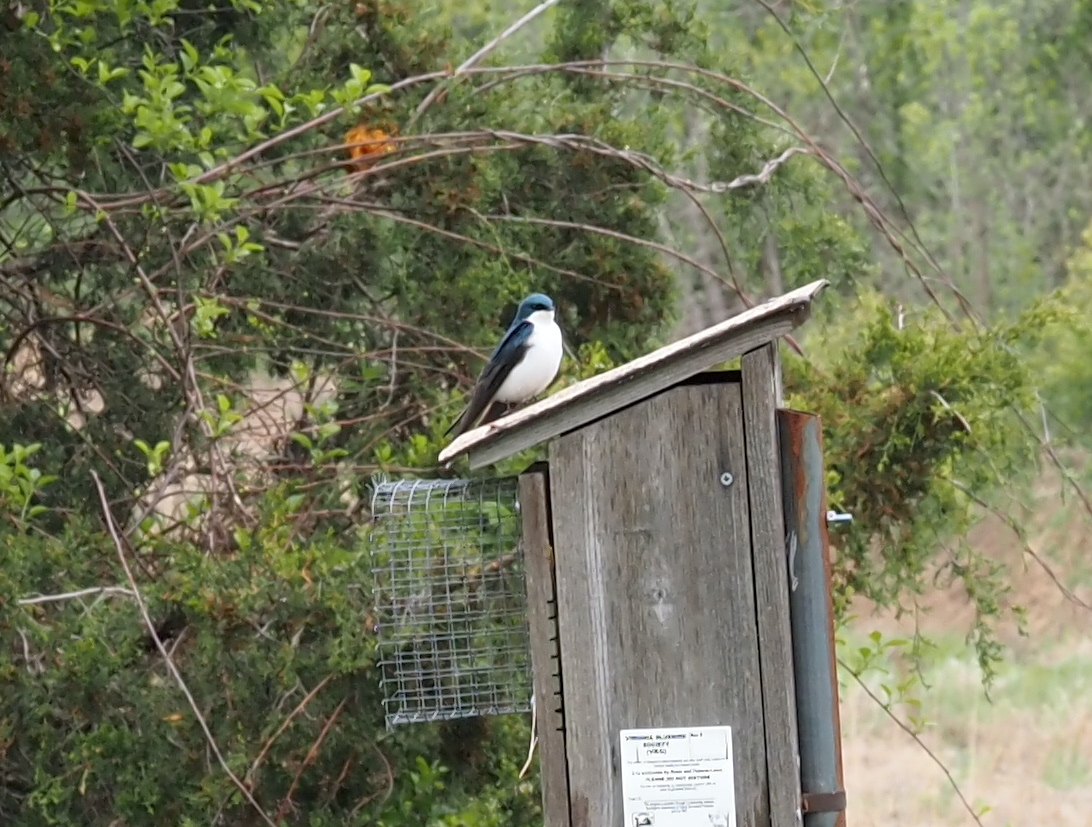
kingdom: Animalia
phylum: Chordata
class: Aves
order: Passeriformes
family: Hirundinidae
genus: Tachycineta
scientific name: Tachycineta bicolor
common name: Tree swallow
